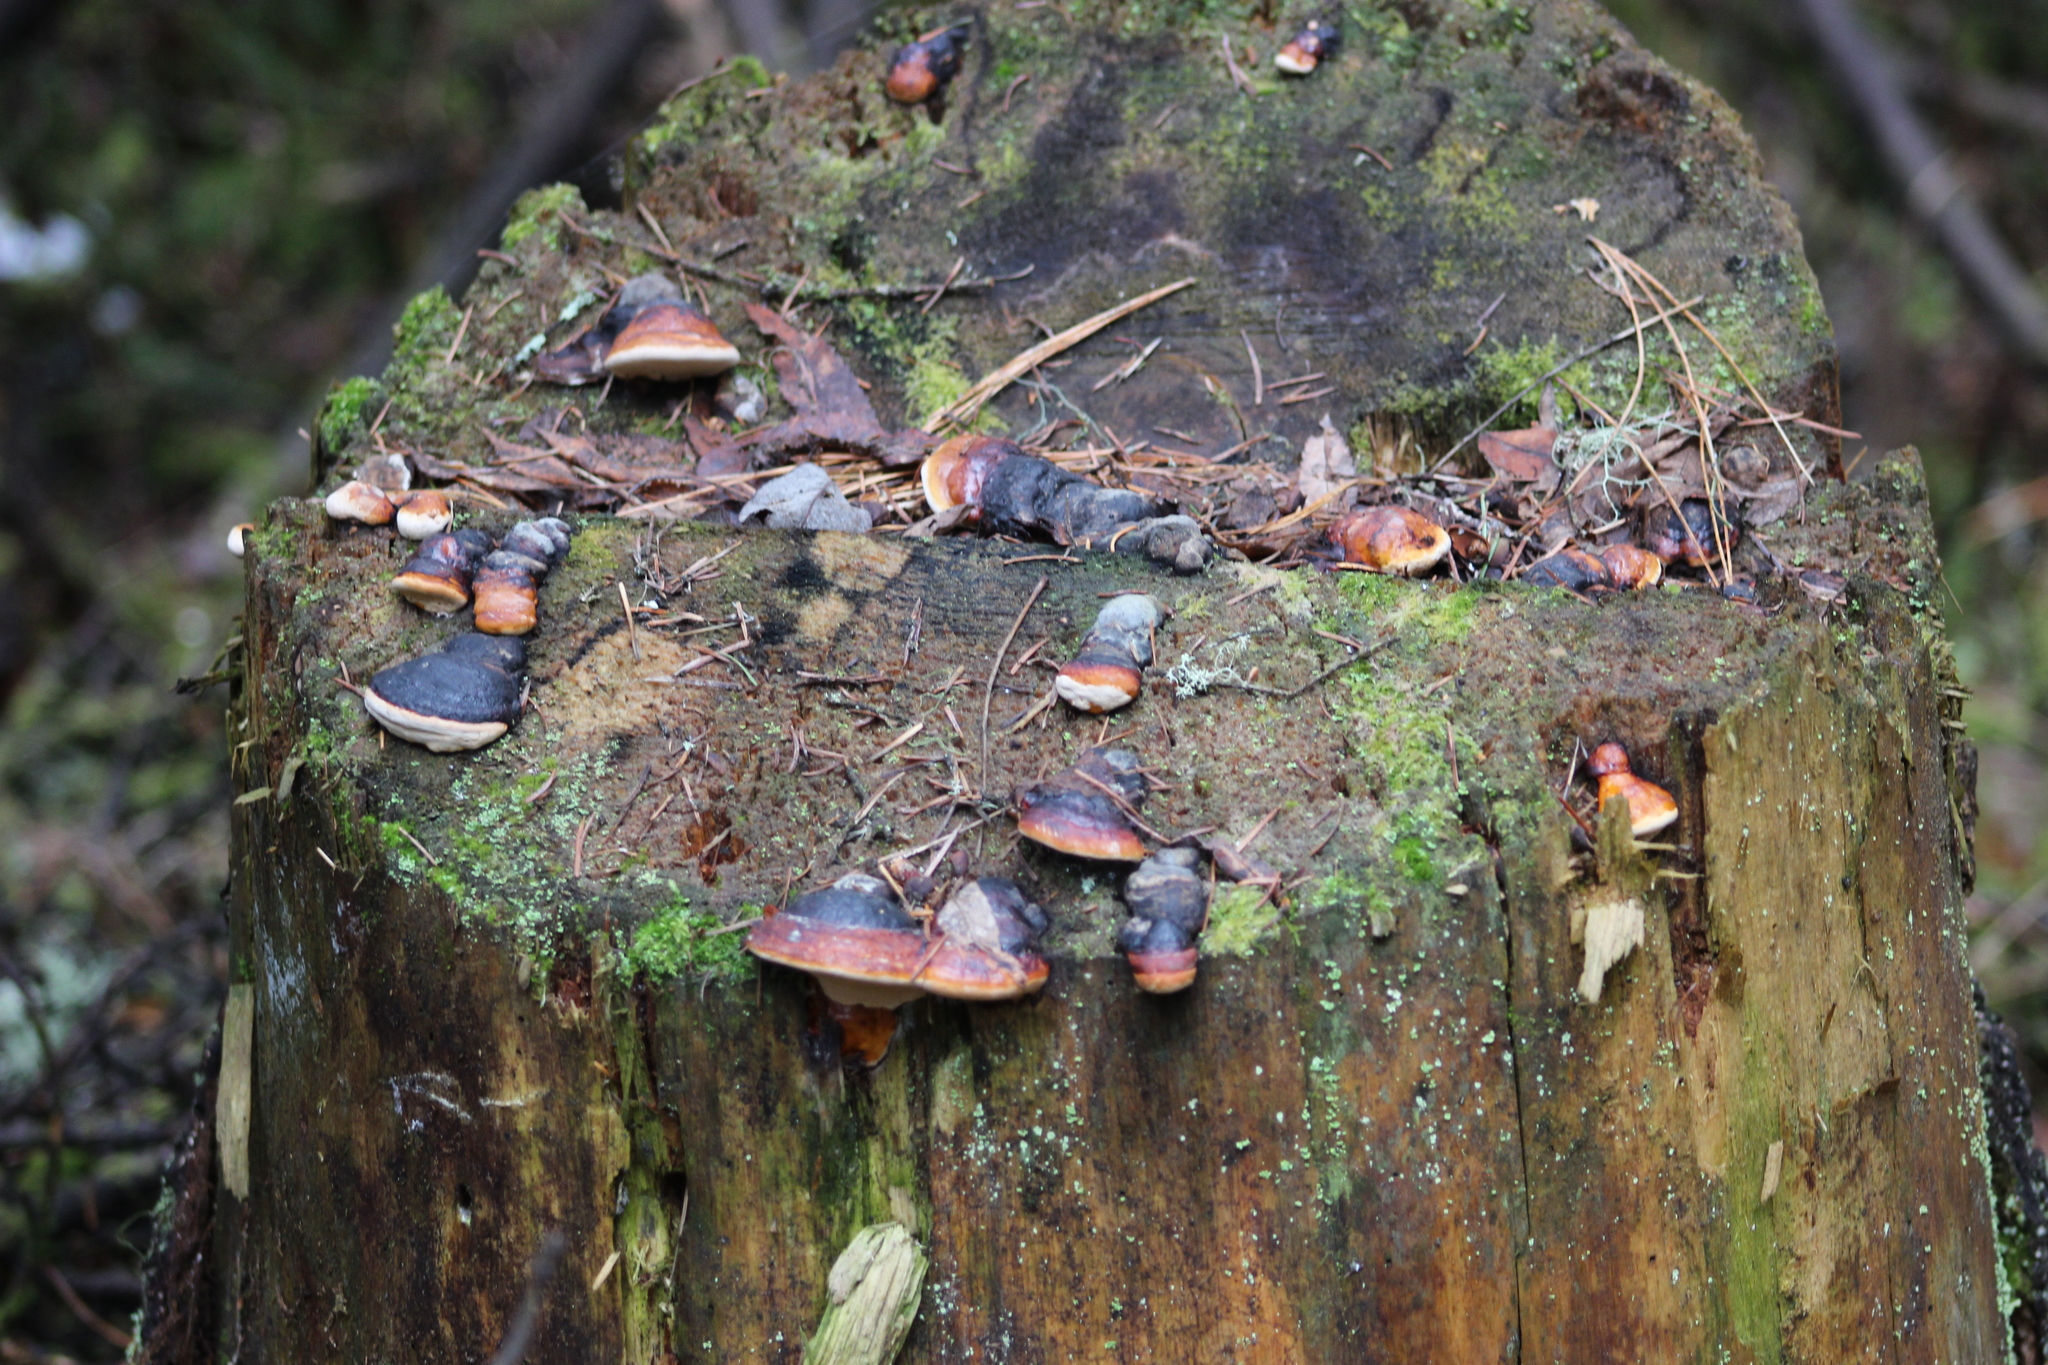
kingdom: Fungi
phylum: Basidiomycota
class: Agaricomycetes
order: Polyporales
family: Fomitopsidaceae
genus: Fomitopsis
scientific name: Fomitopsis pinicola
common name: Red-belted bracket
